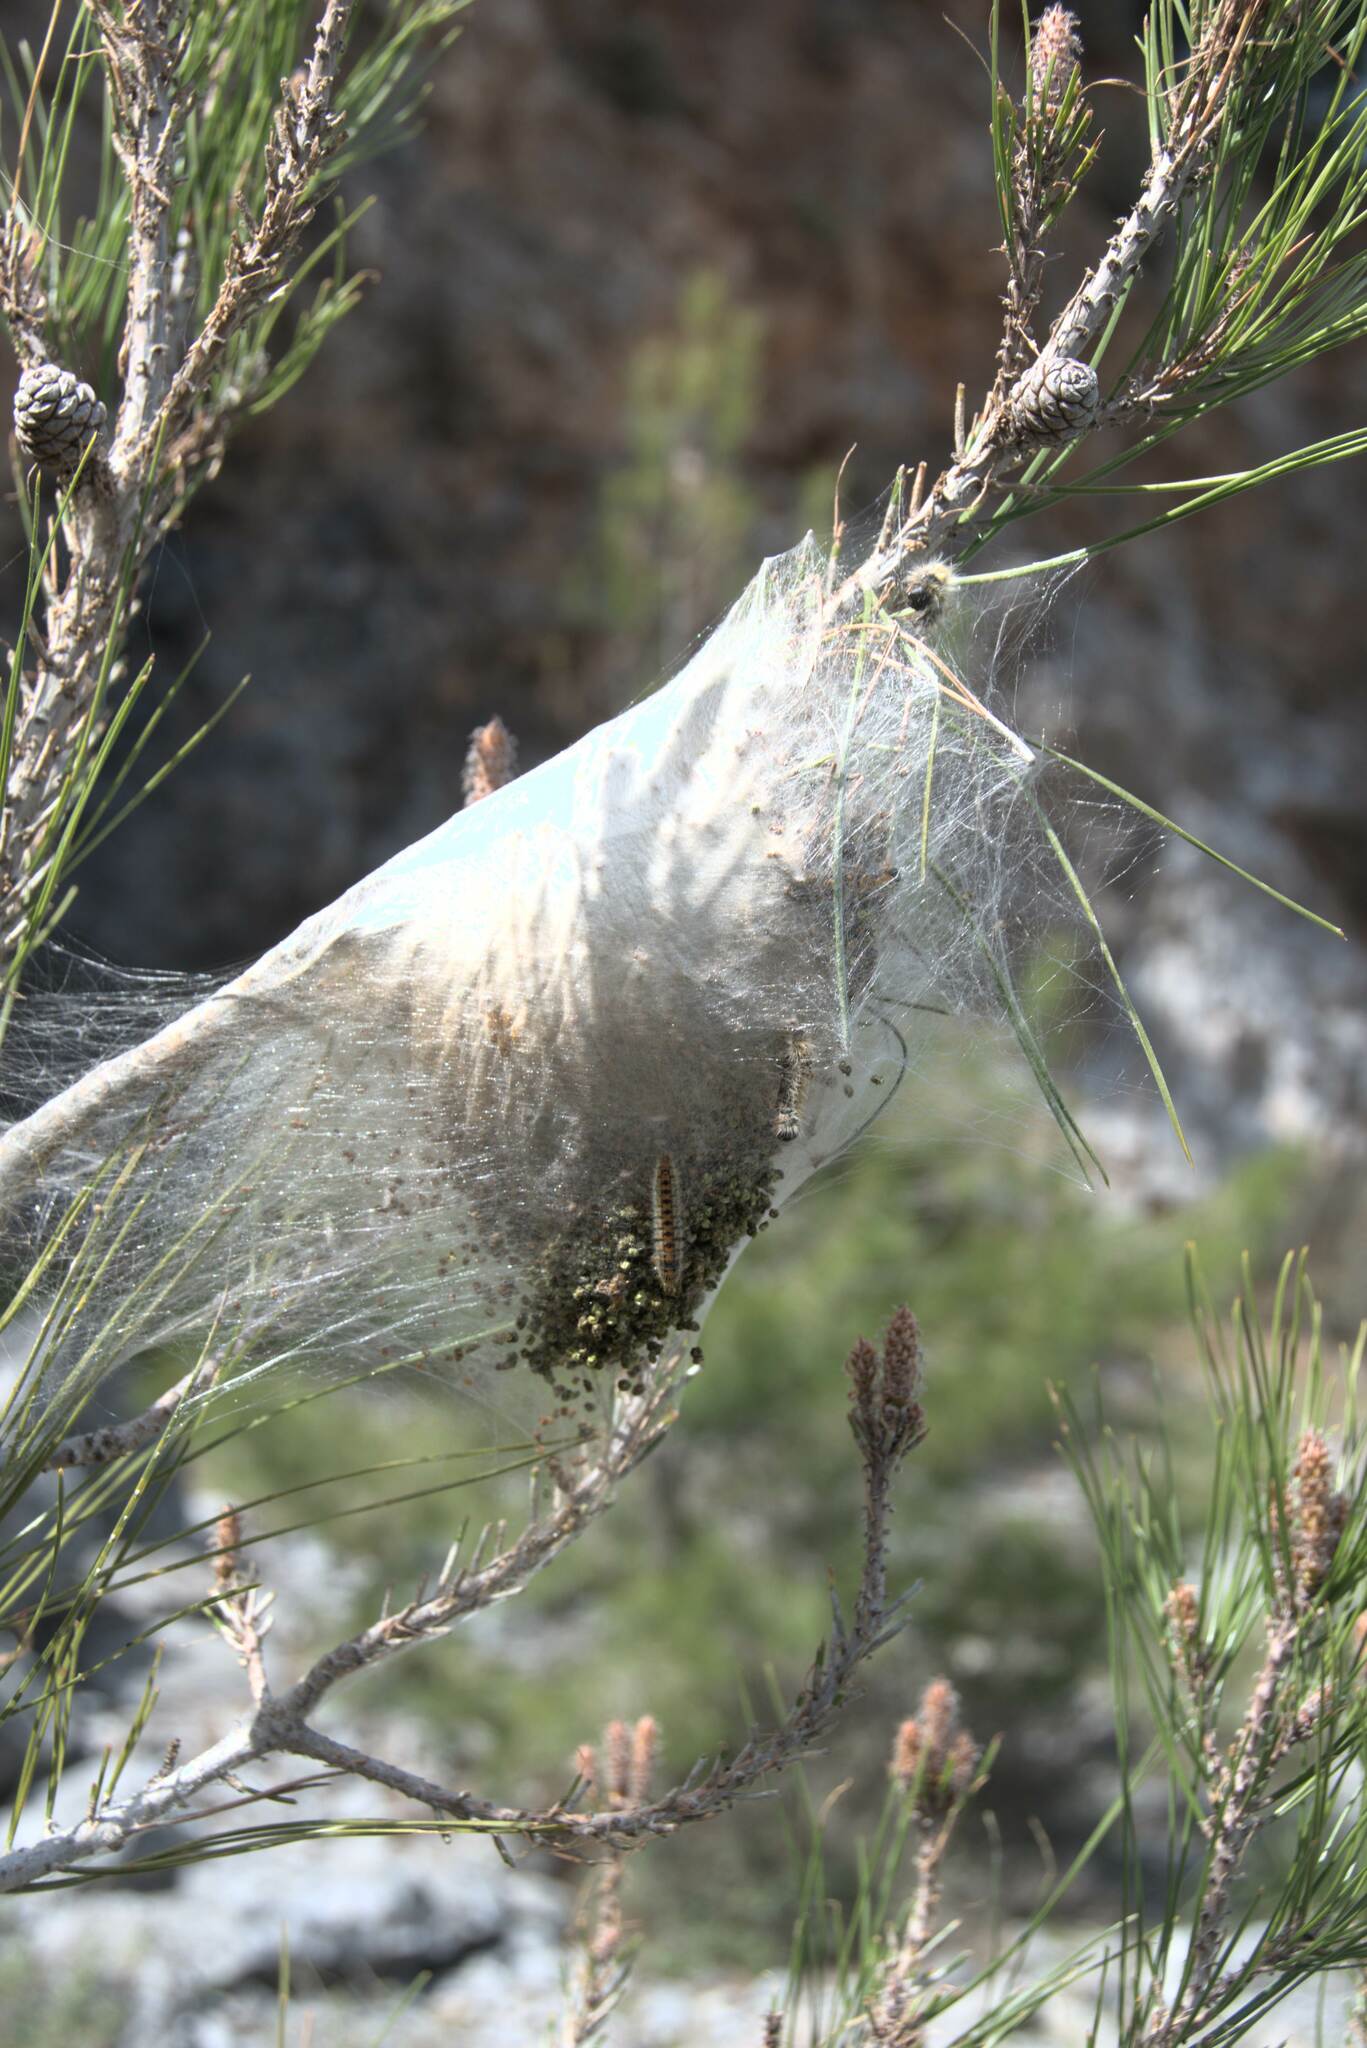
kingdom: Animalia
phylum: Arthropoda
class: Insecta
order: Lepidoptera
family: Notodontidae
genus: Thaumetopoea
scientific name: Thaumetopoea
